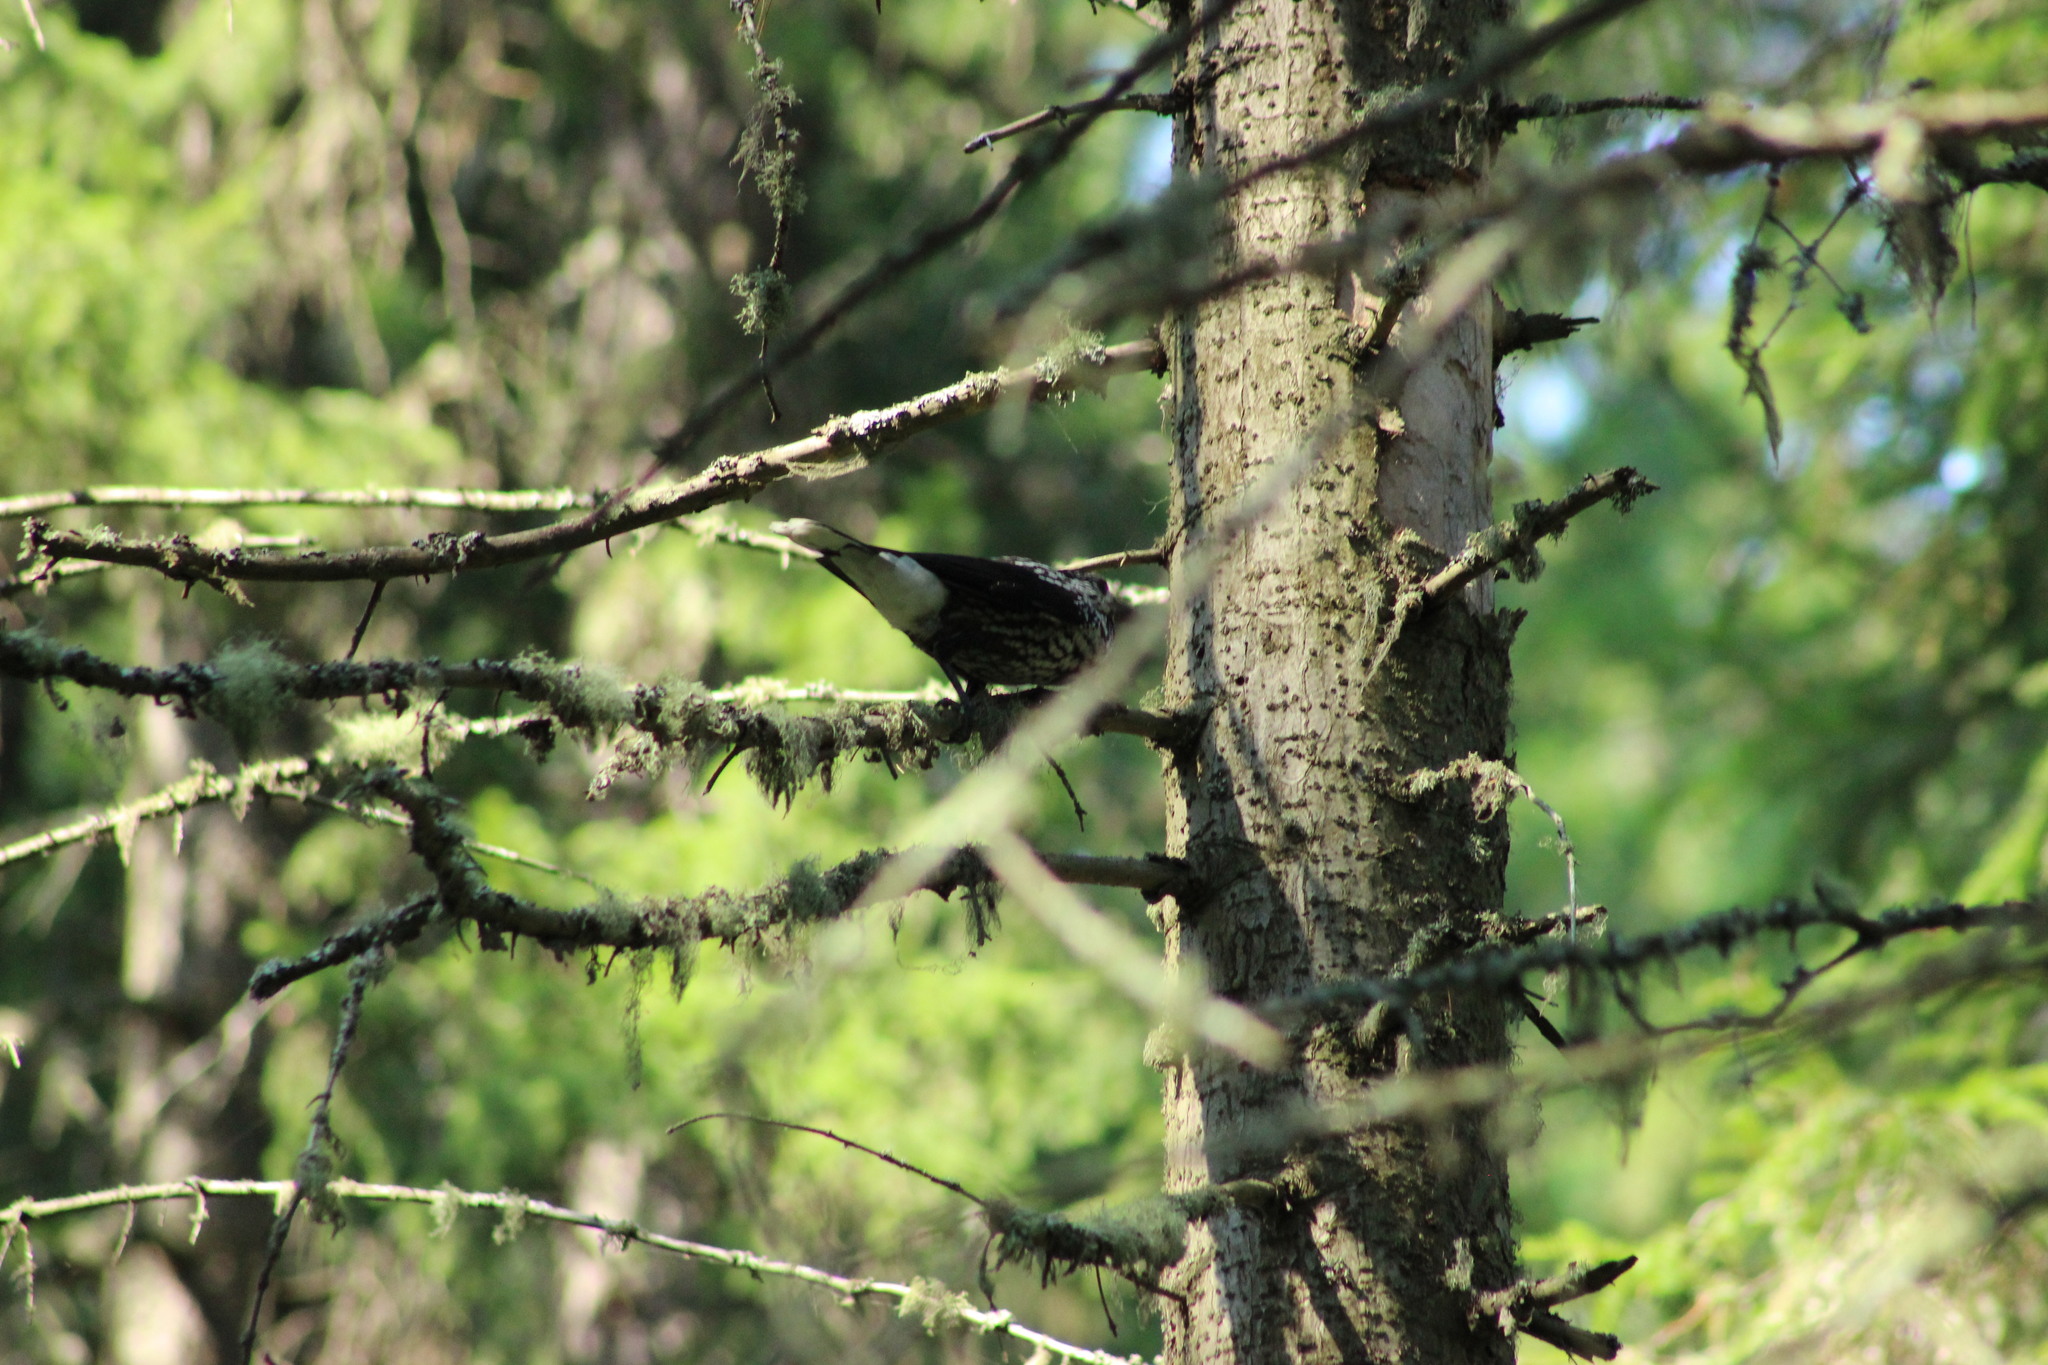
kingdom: Animalia
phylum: Chordata
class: Aves
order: Passeriformes
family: Corvidae
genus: Nucifraga
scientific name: Nucifraga caryocatactes
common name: Spotted nutcracker
